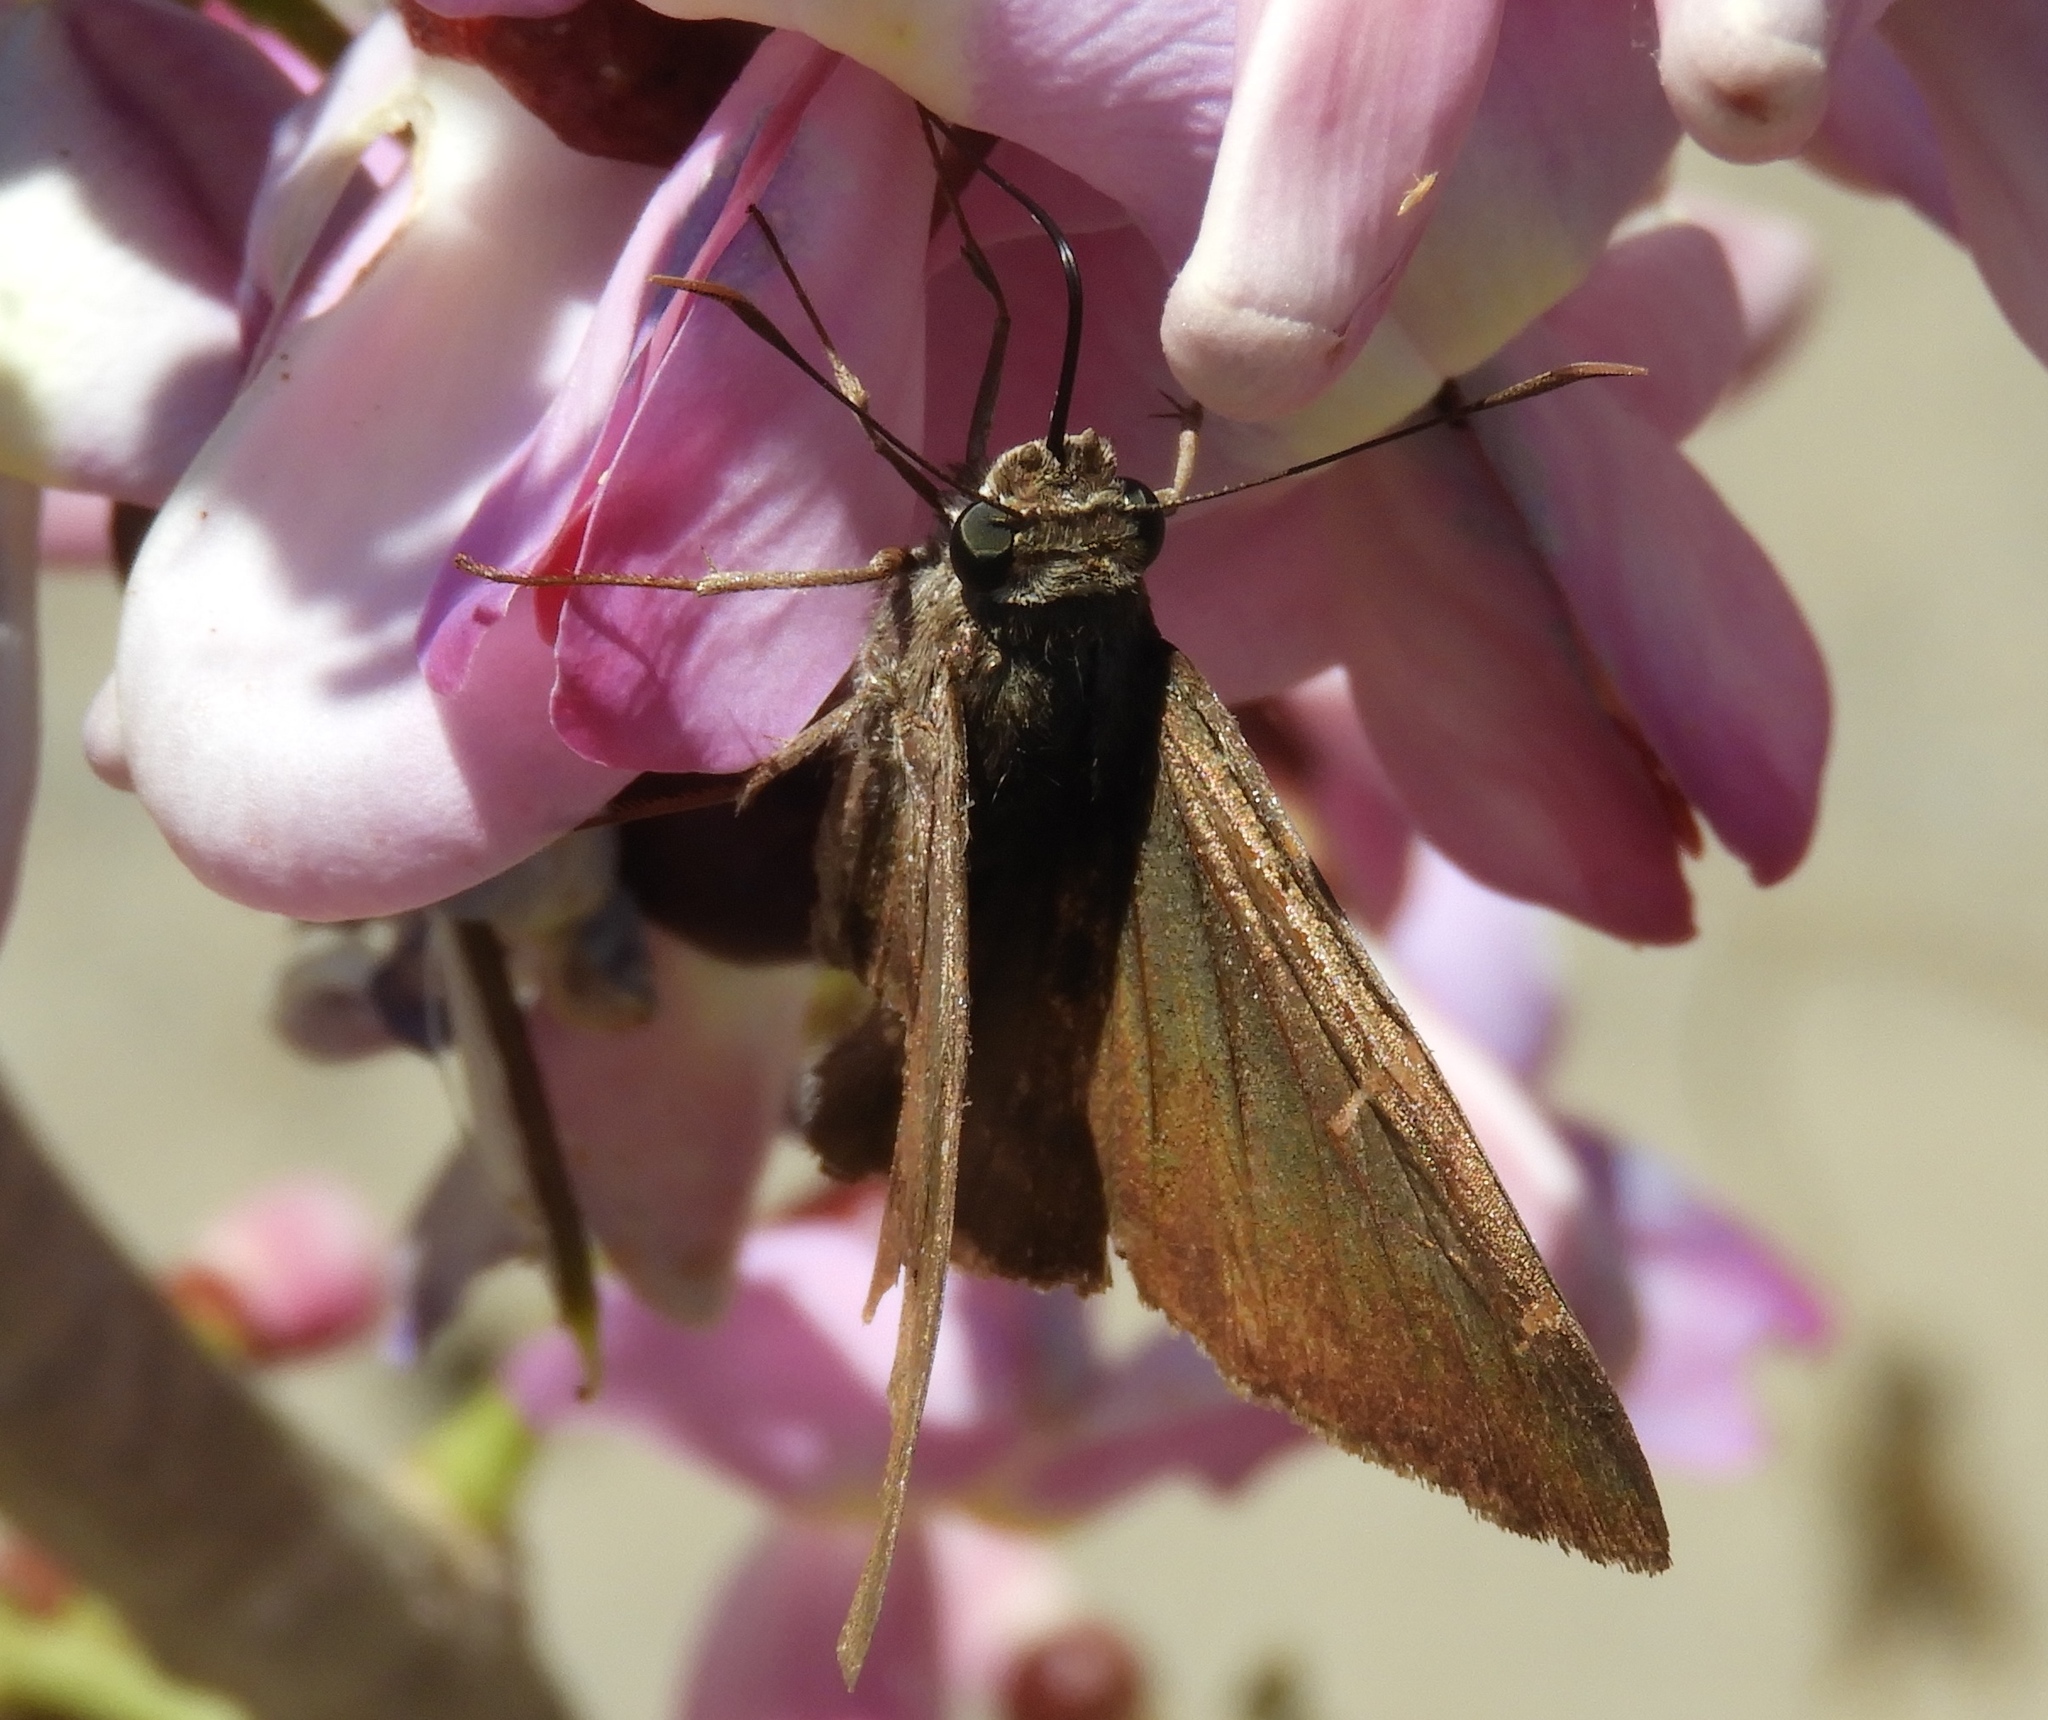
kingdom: Animalia
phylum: Arthropoda
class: Insecta
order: Lepidoptera
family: Hesperiidae
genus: Urbanus
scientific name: Urbanus procne
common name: Brown longtail
